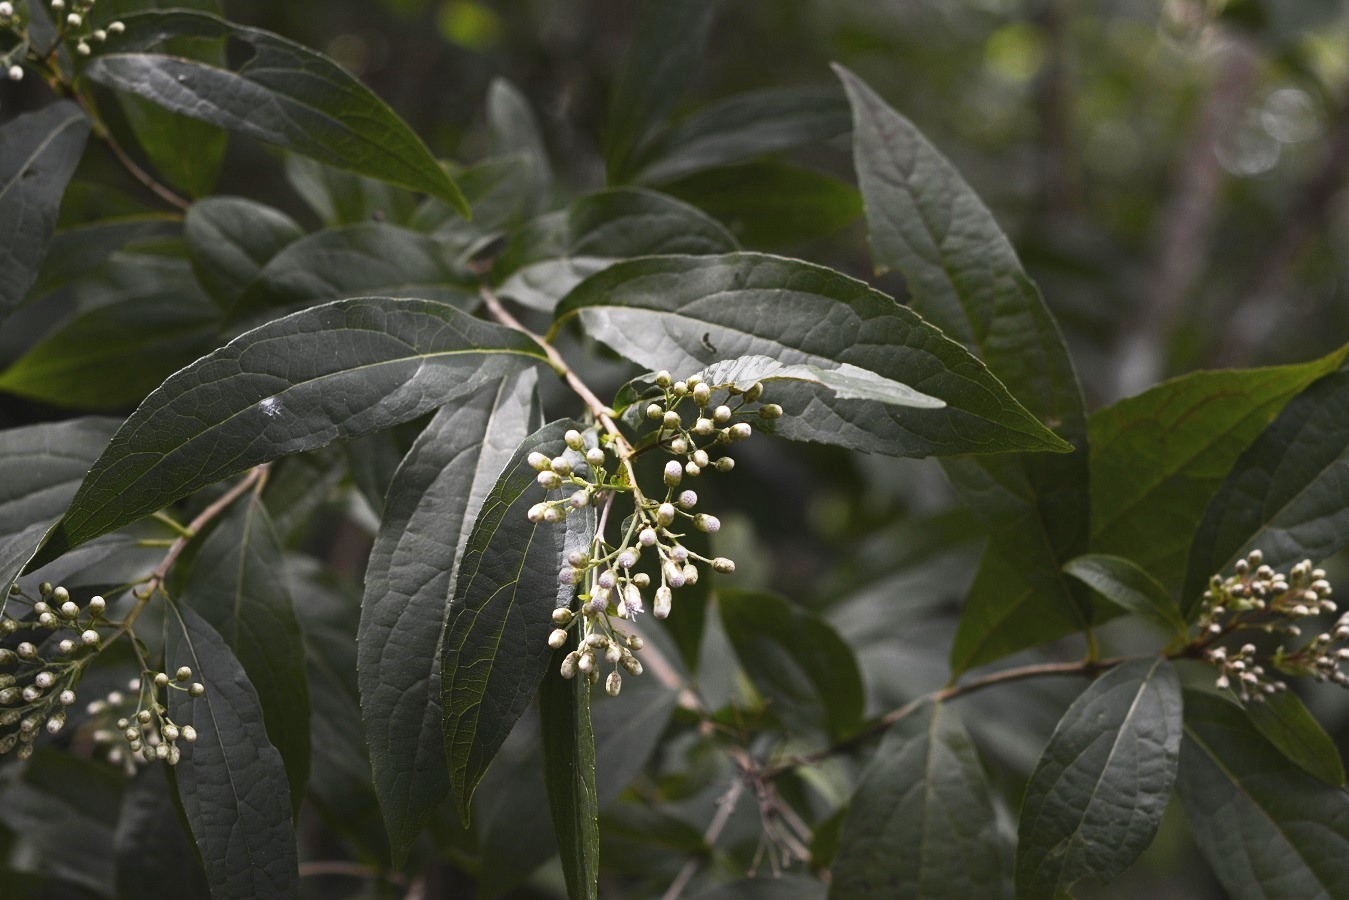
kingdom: Plantae
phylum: Tracheophyta
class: Magnoliopsida
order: Asterales
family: Asteraceae
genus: Chromolaena
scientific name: Chromolaena glaberrima
